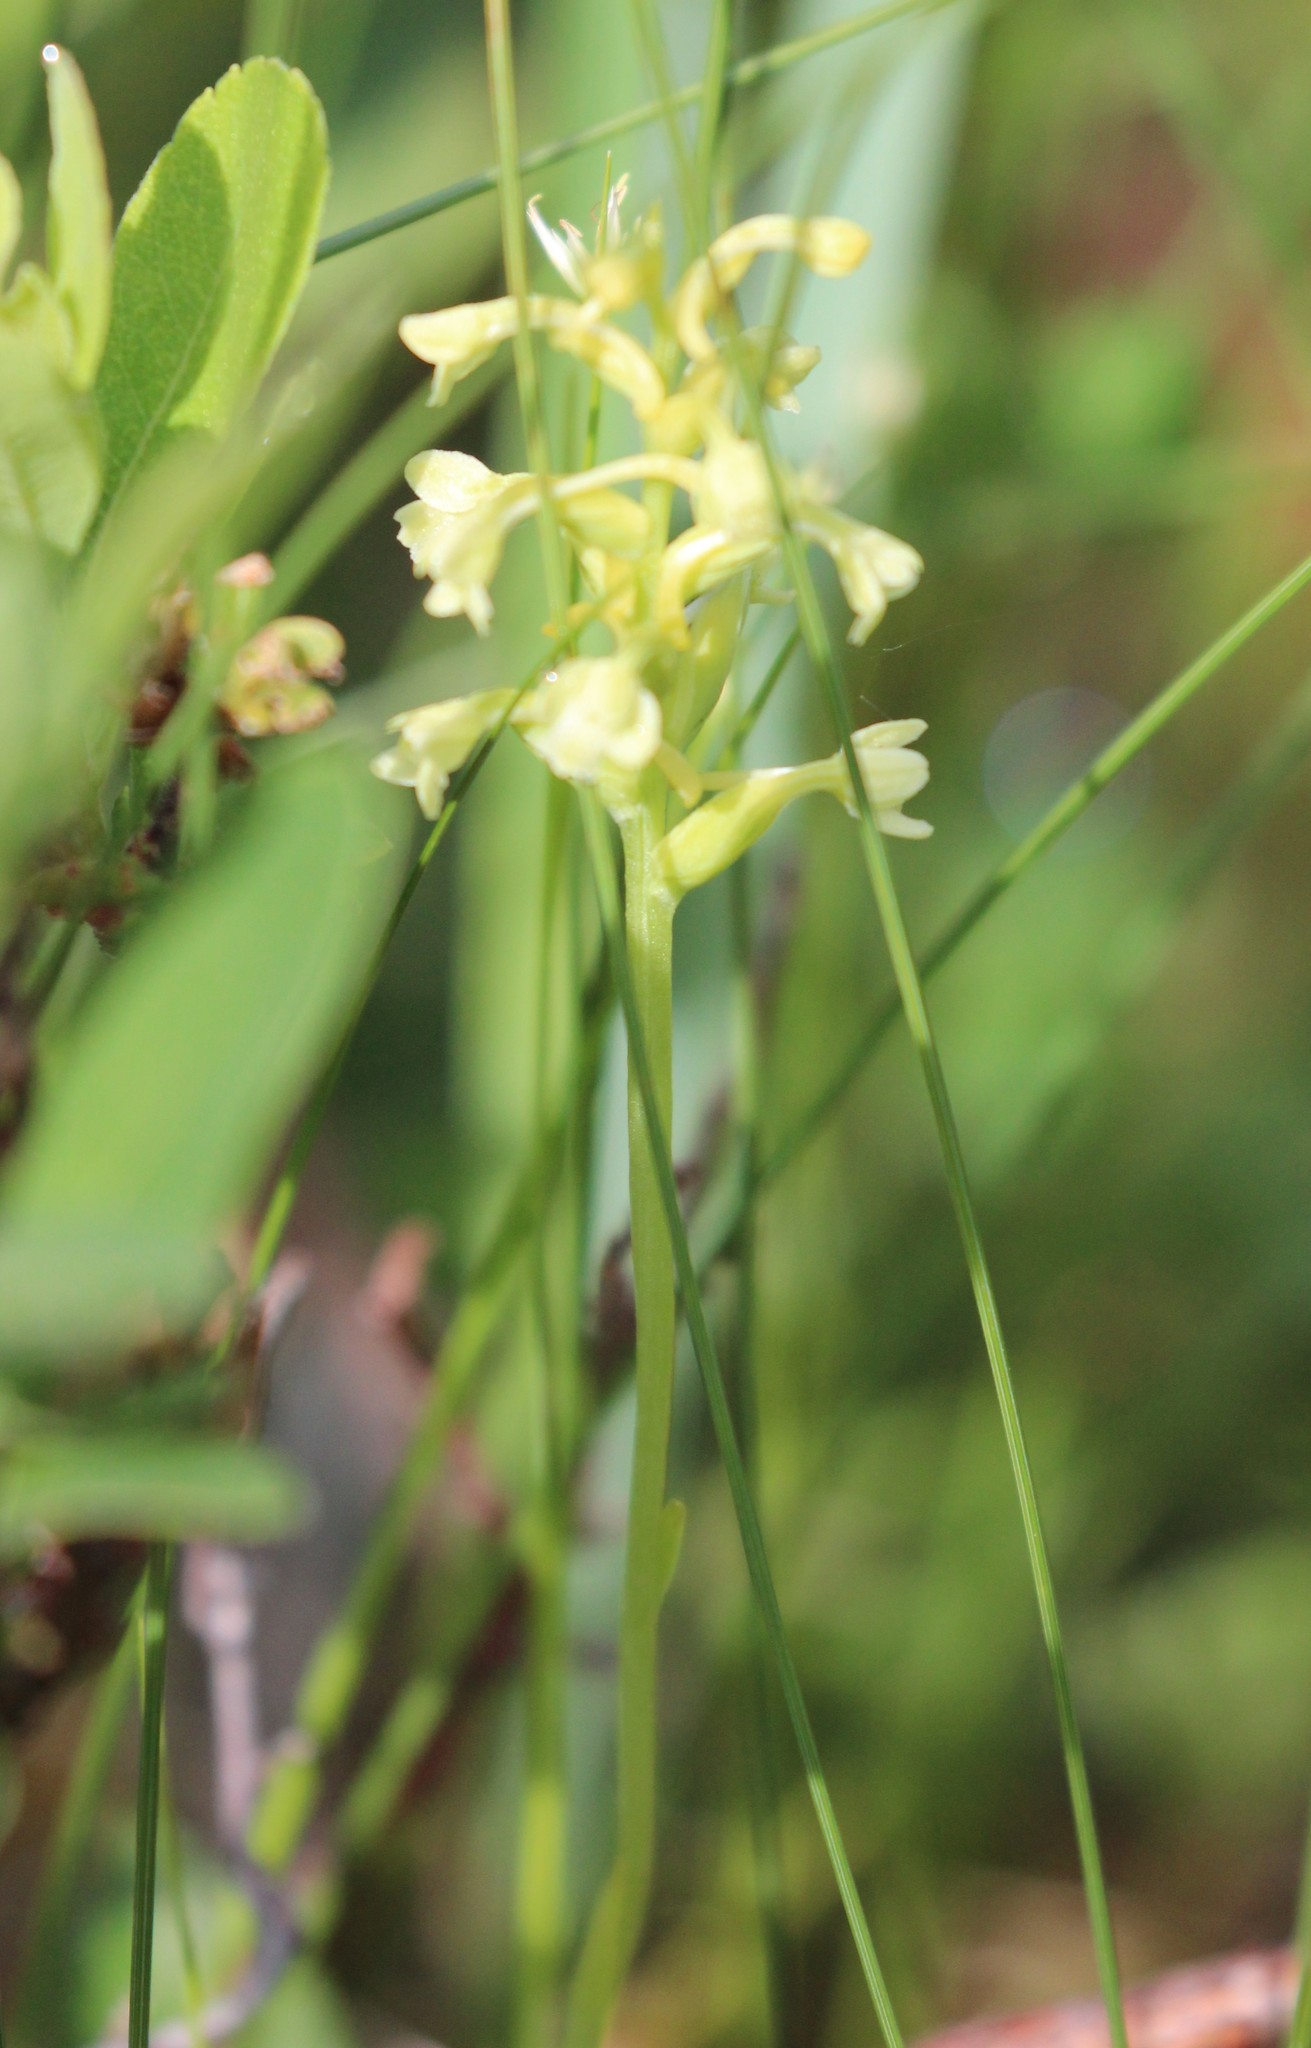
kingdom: Plantae
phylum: Tracheophyta
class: Liliopsida
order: Asparagales
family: Orchidaceae
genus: Platanthera
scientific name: Platanthera clavellata
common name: Club-spur orchid
